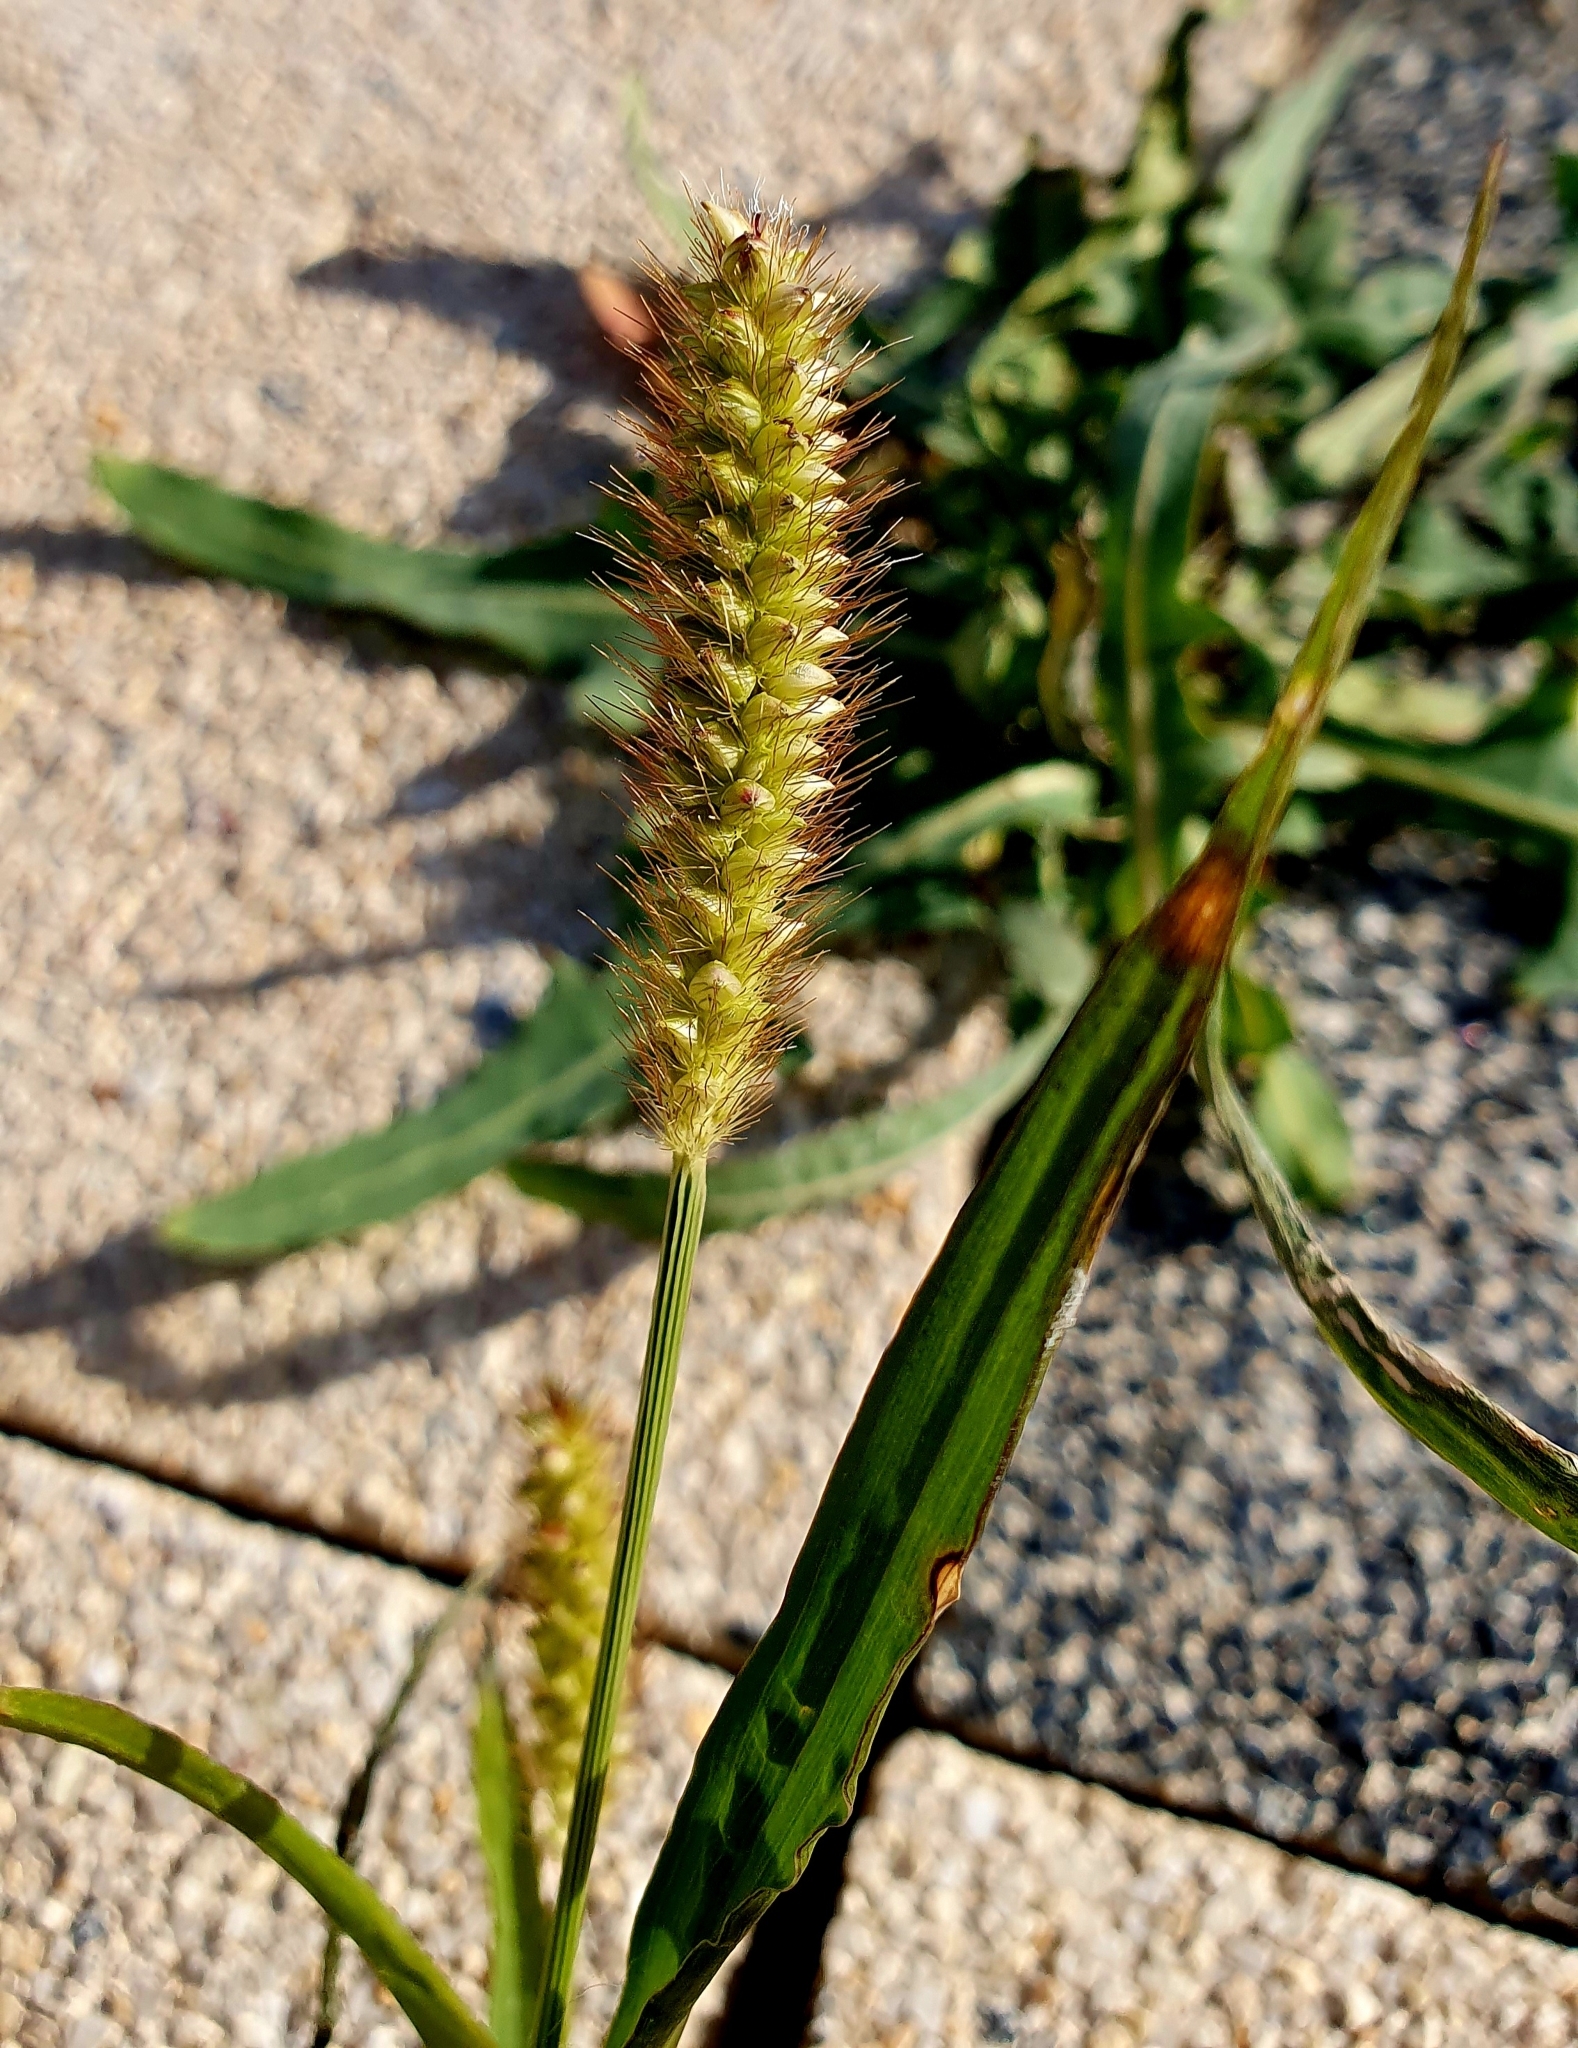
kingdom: Plantae
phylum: Tracheophyta
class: Liliopsida
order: Poales
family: Poaceae
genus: Setaria
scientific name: Setaria pumila
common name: Yellow bristle-grass
